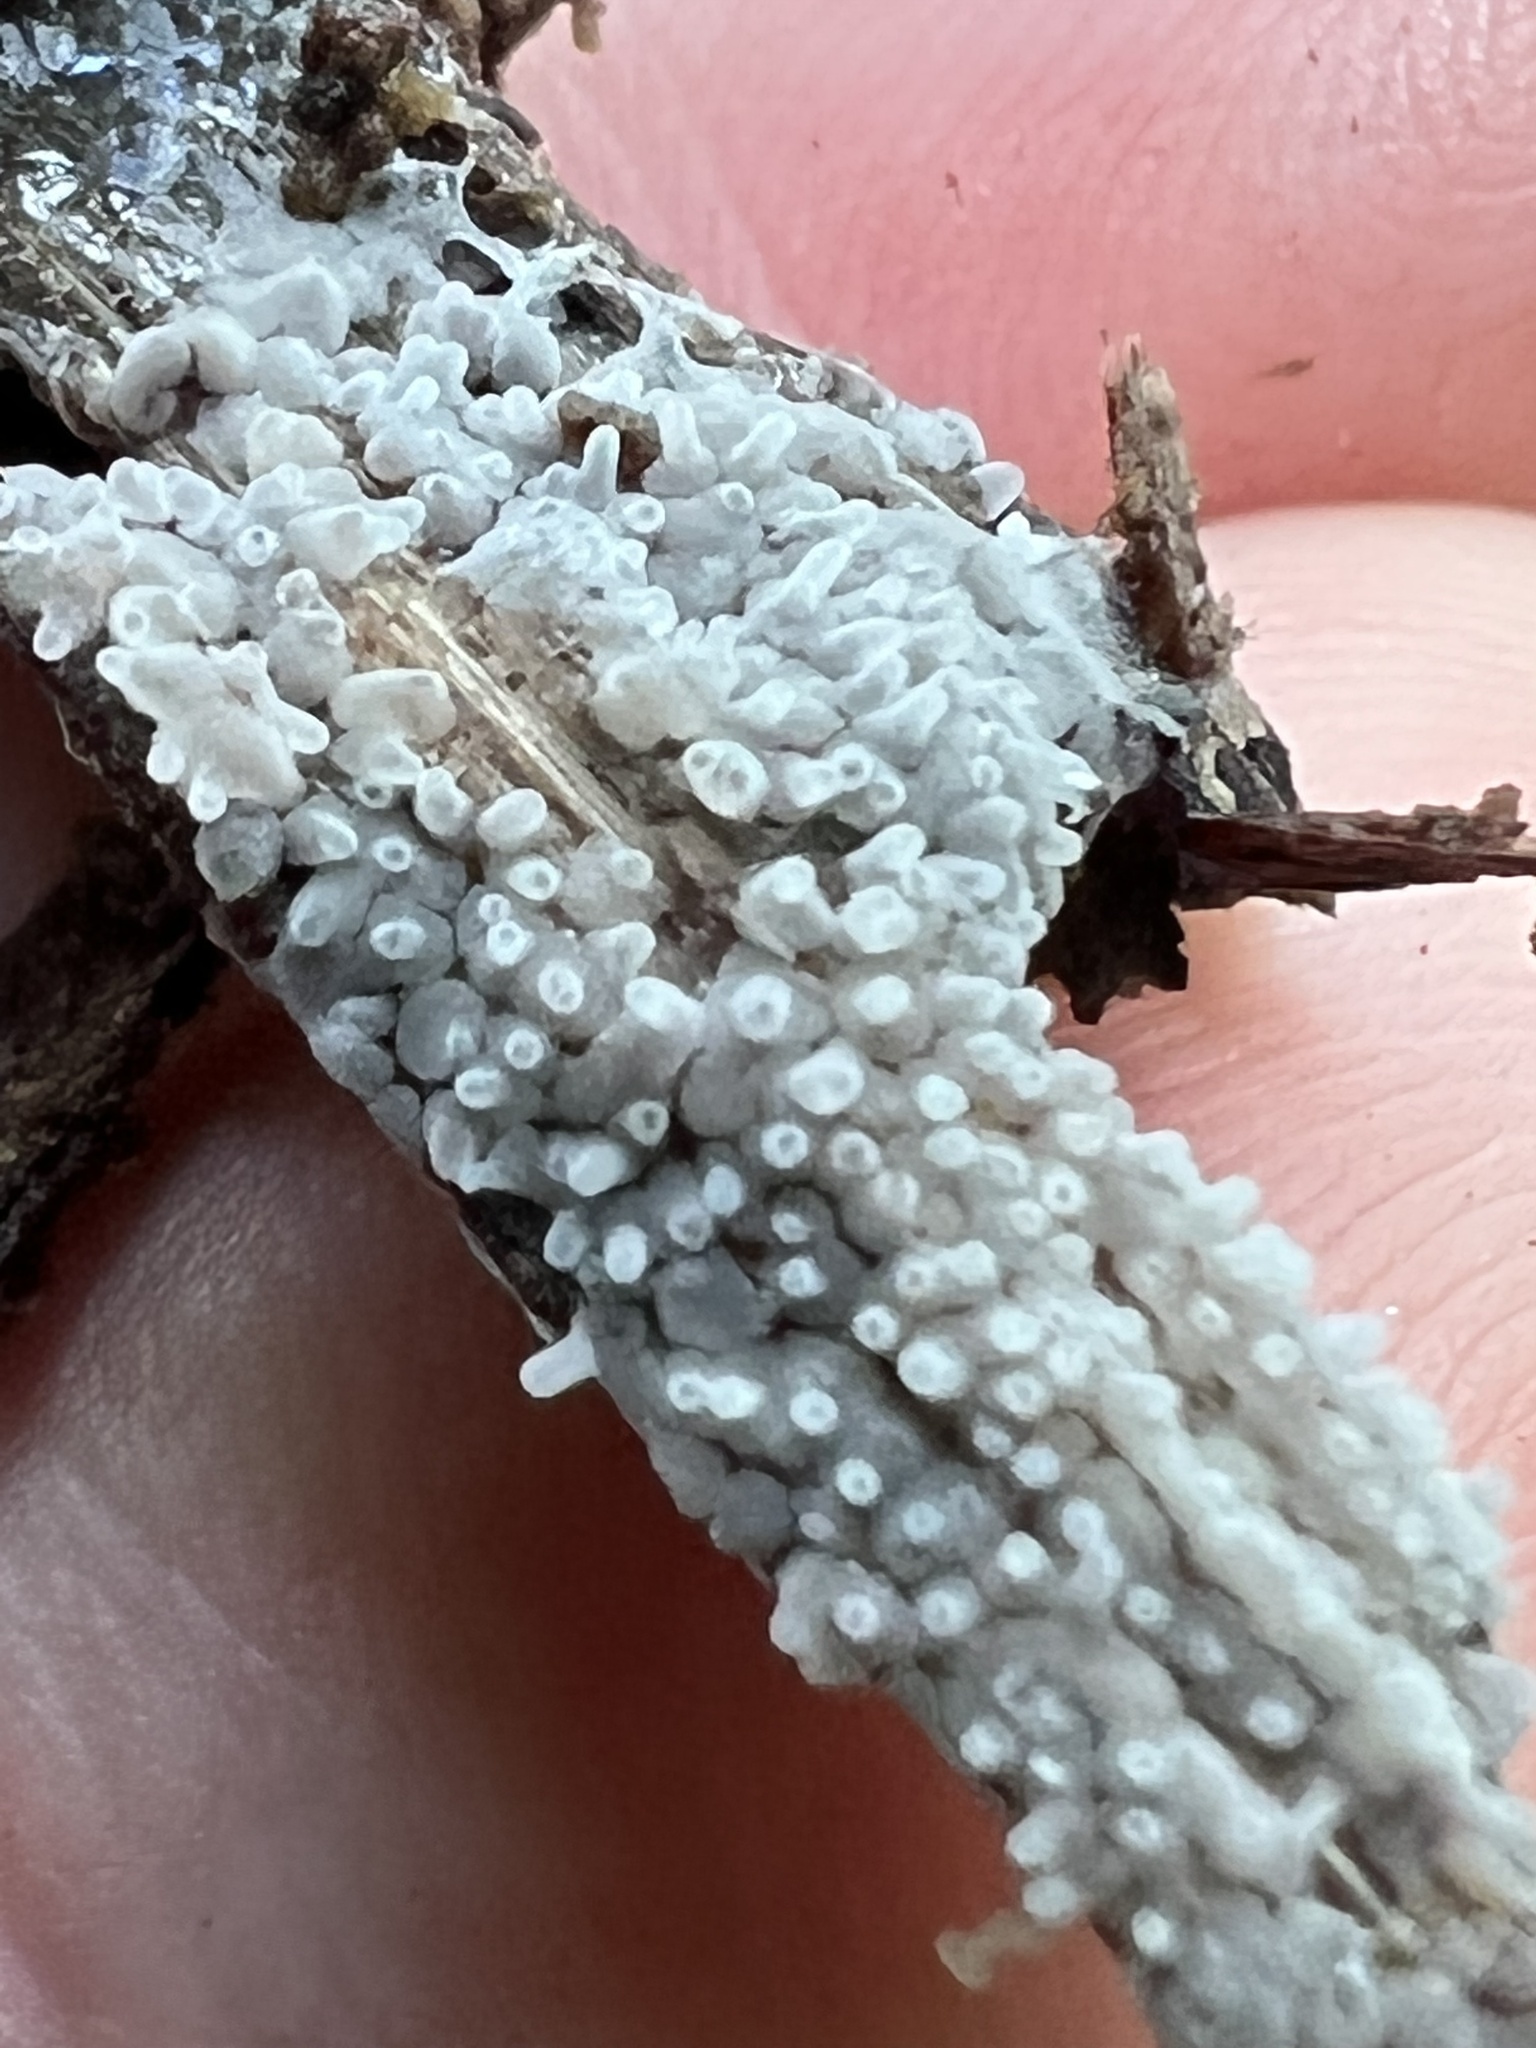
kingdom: Protozoa
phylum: Mycetozoa
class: Protosteliomycetes
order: Ceratiomyxales
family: Ceratiomyxaceae
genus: Ceratiomyxa
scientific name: Ceratiomyxa fruticulosa
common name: Honeycomb coral slime mold
